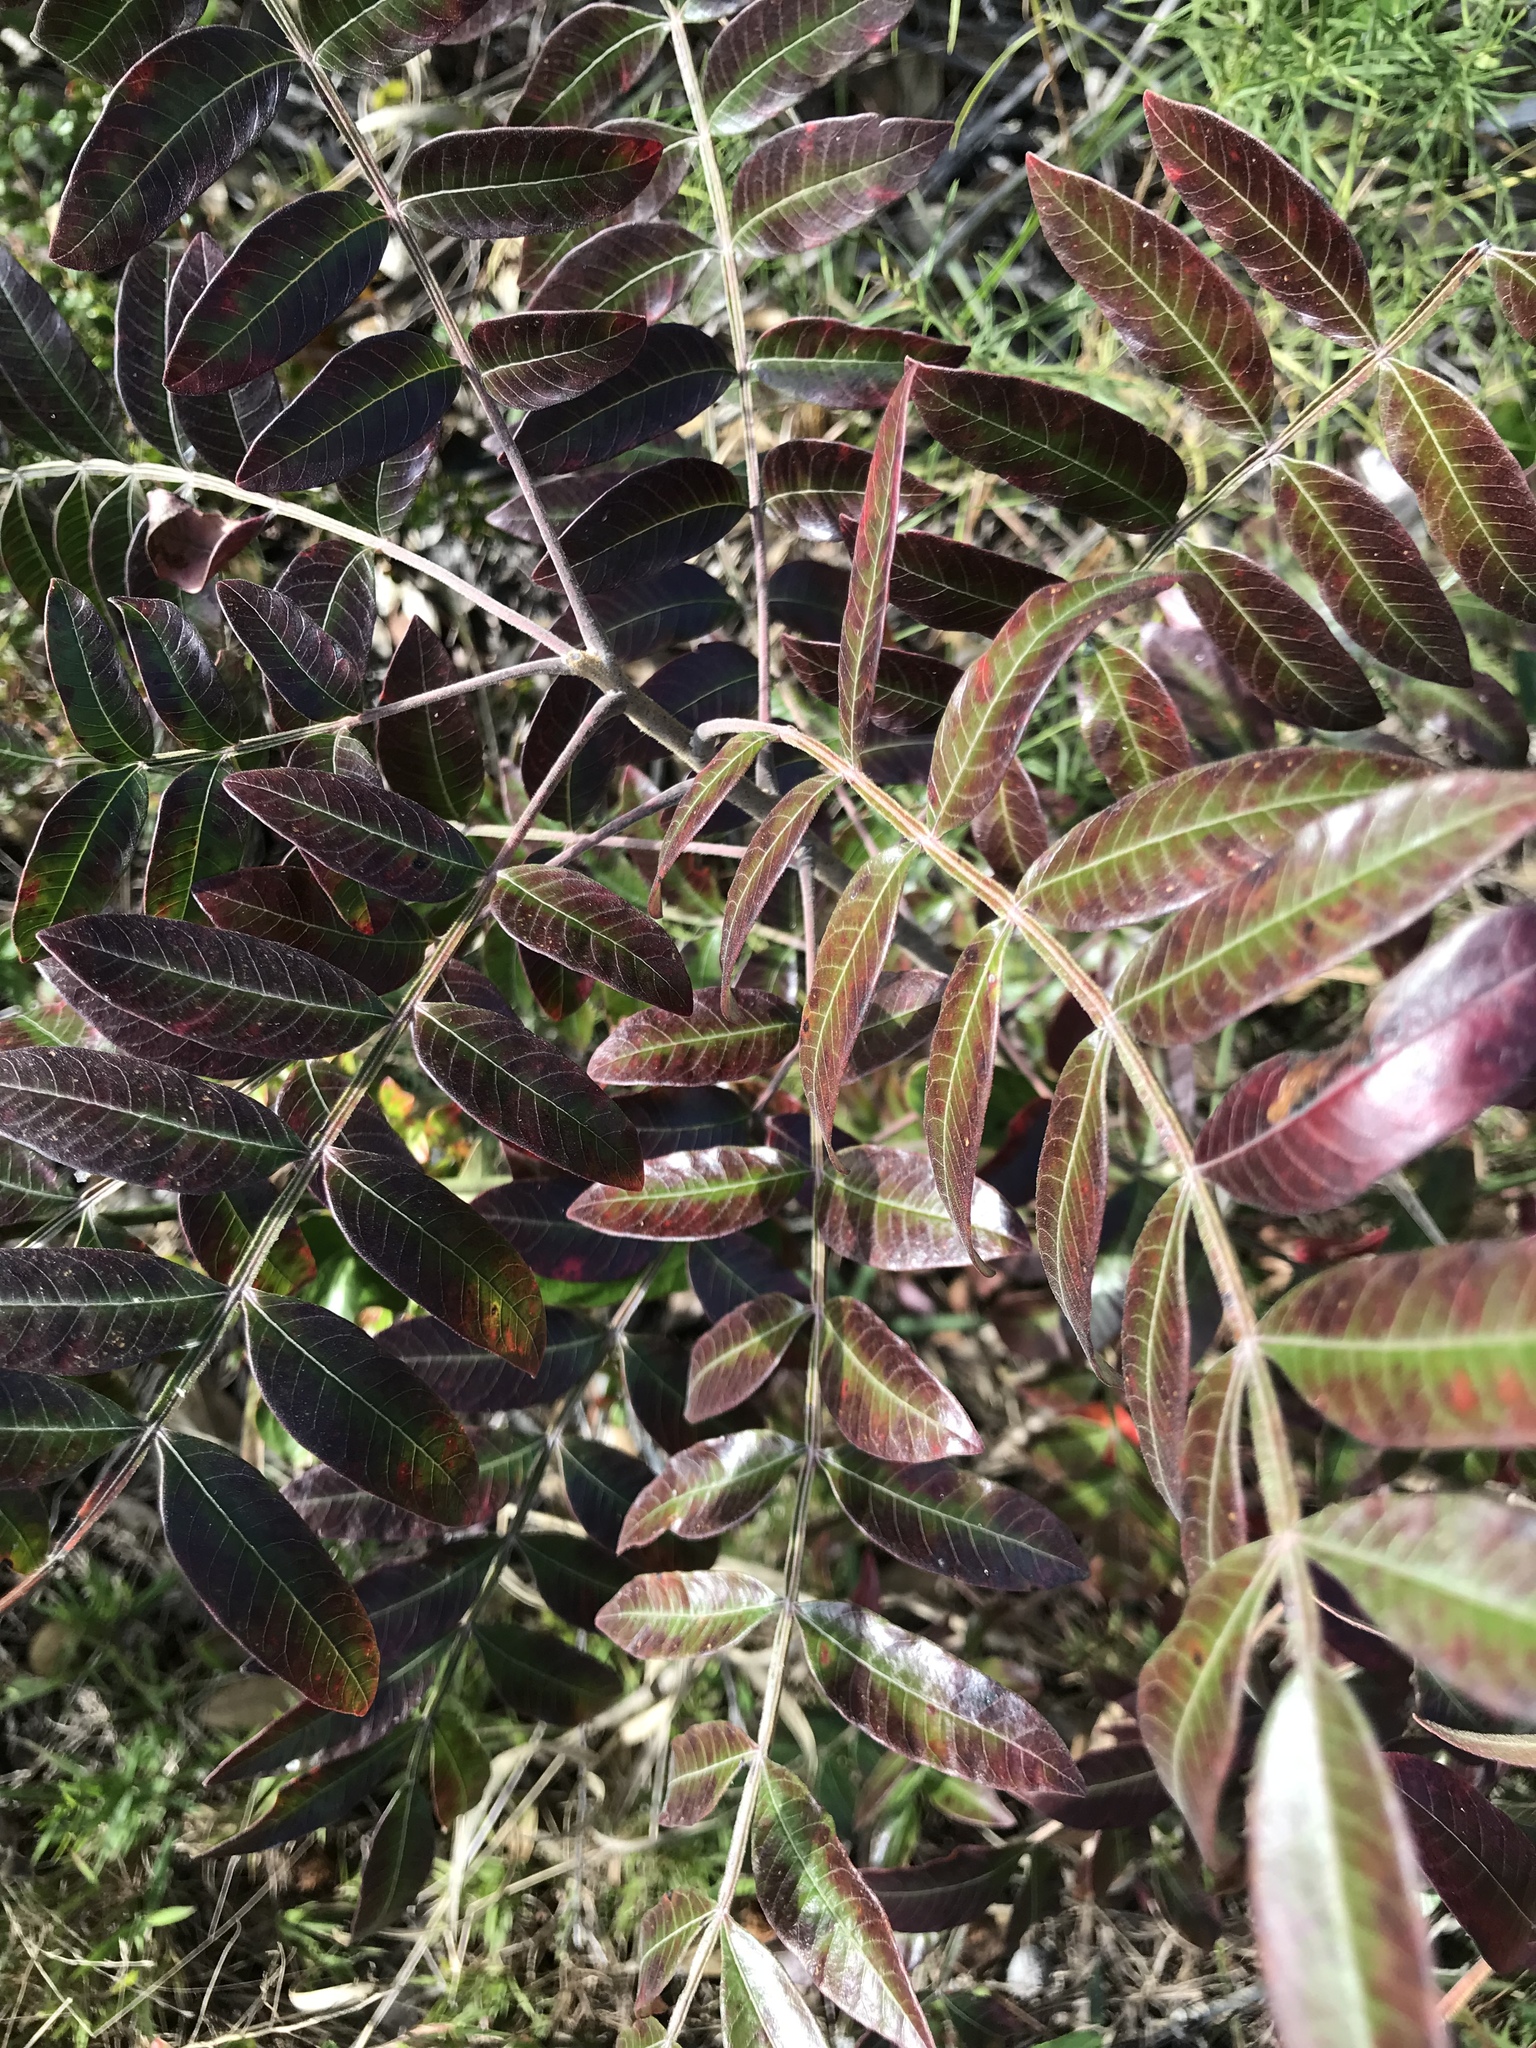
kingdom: Plantae
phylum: Tracheophyta
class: Magnoliopsida
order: Sapindales
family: Anacardiaceae
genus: Rhus
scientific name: Rhus copallina
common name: Shining sumac
